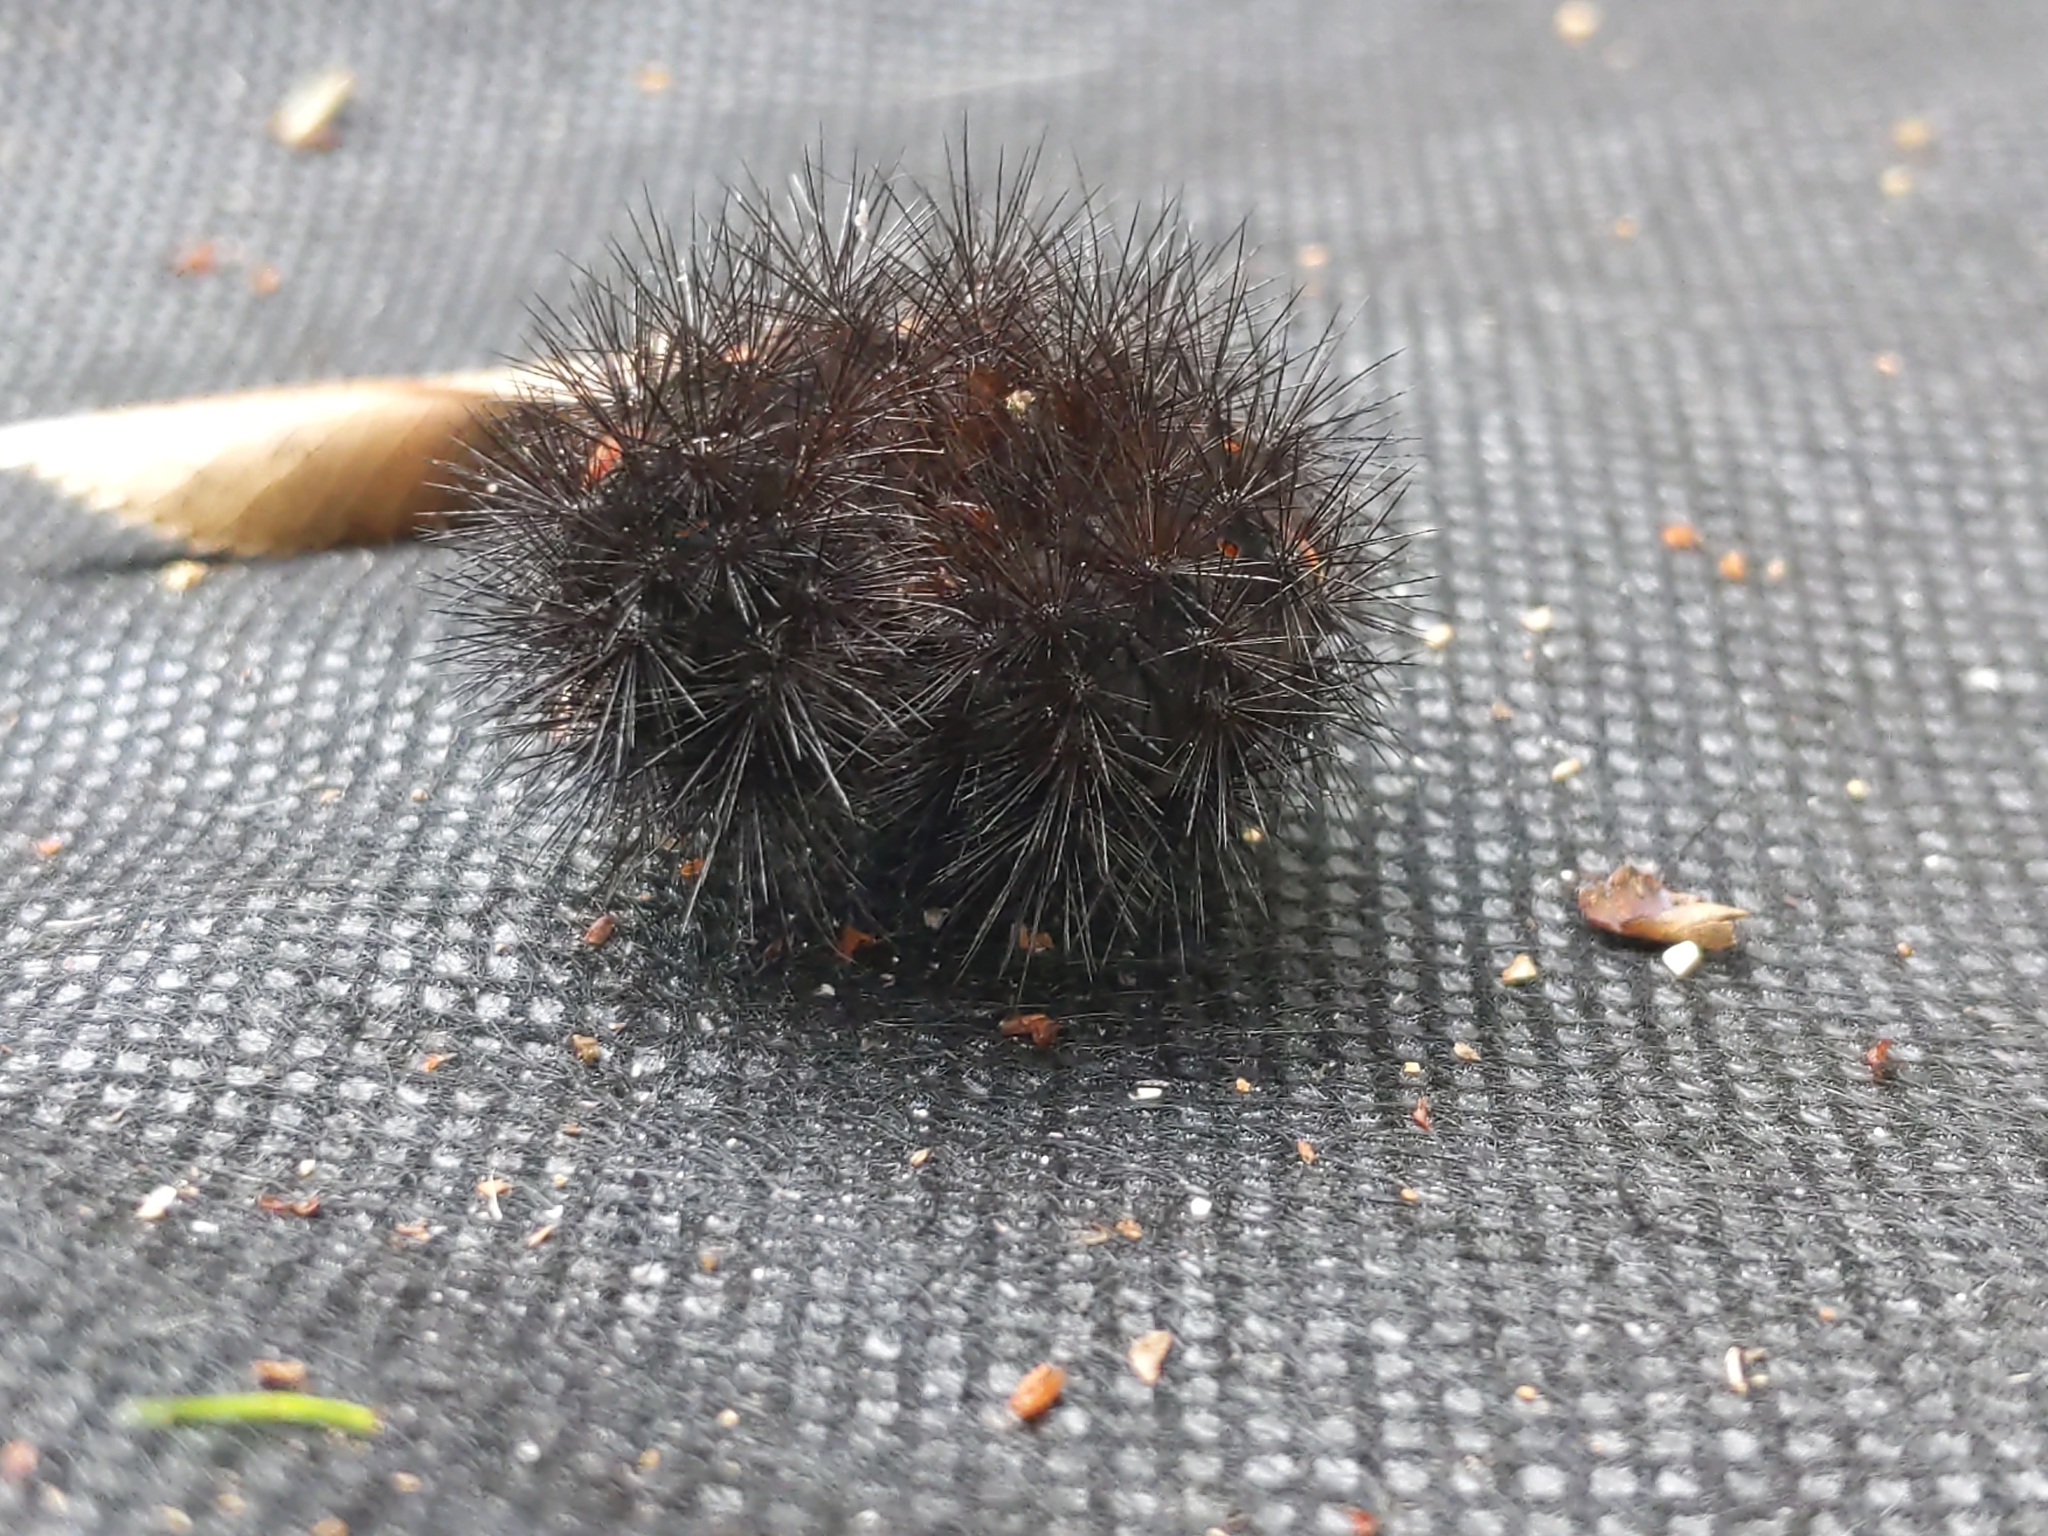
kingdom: Animalia
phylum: Arthropoda
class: Insecta
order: Lepidoptera
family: Erebidae
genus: Hypercompe
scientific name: Hypercompe scribonia
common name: Giant leopard moth
